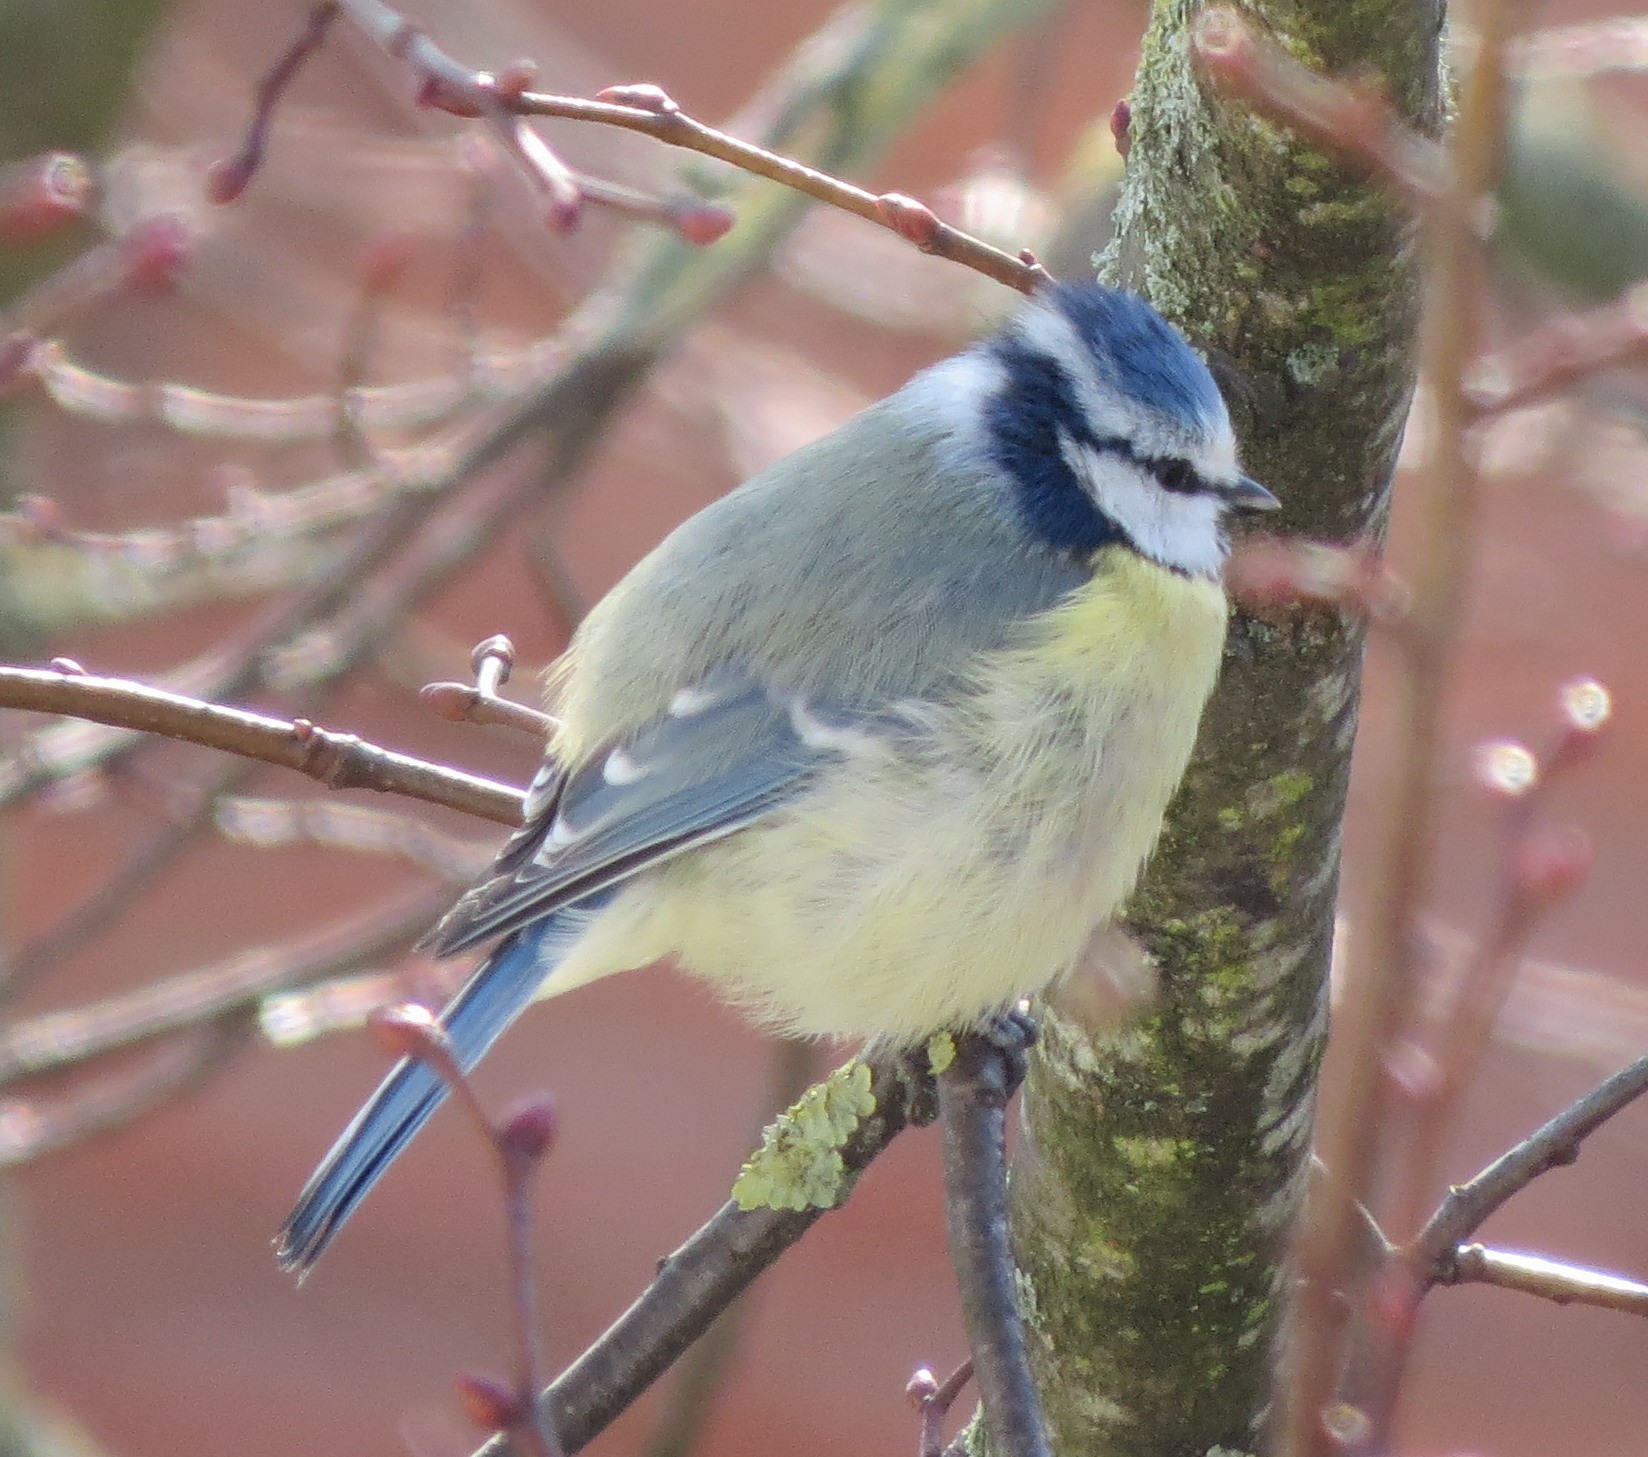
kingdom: Animalia
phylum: Chordata
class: Aves
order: Passeriformes
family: Paridae
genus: Cyanistes
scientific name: Cyanistes caeruleus
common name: Eurasian blue tit
